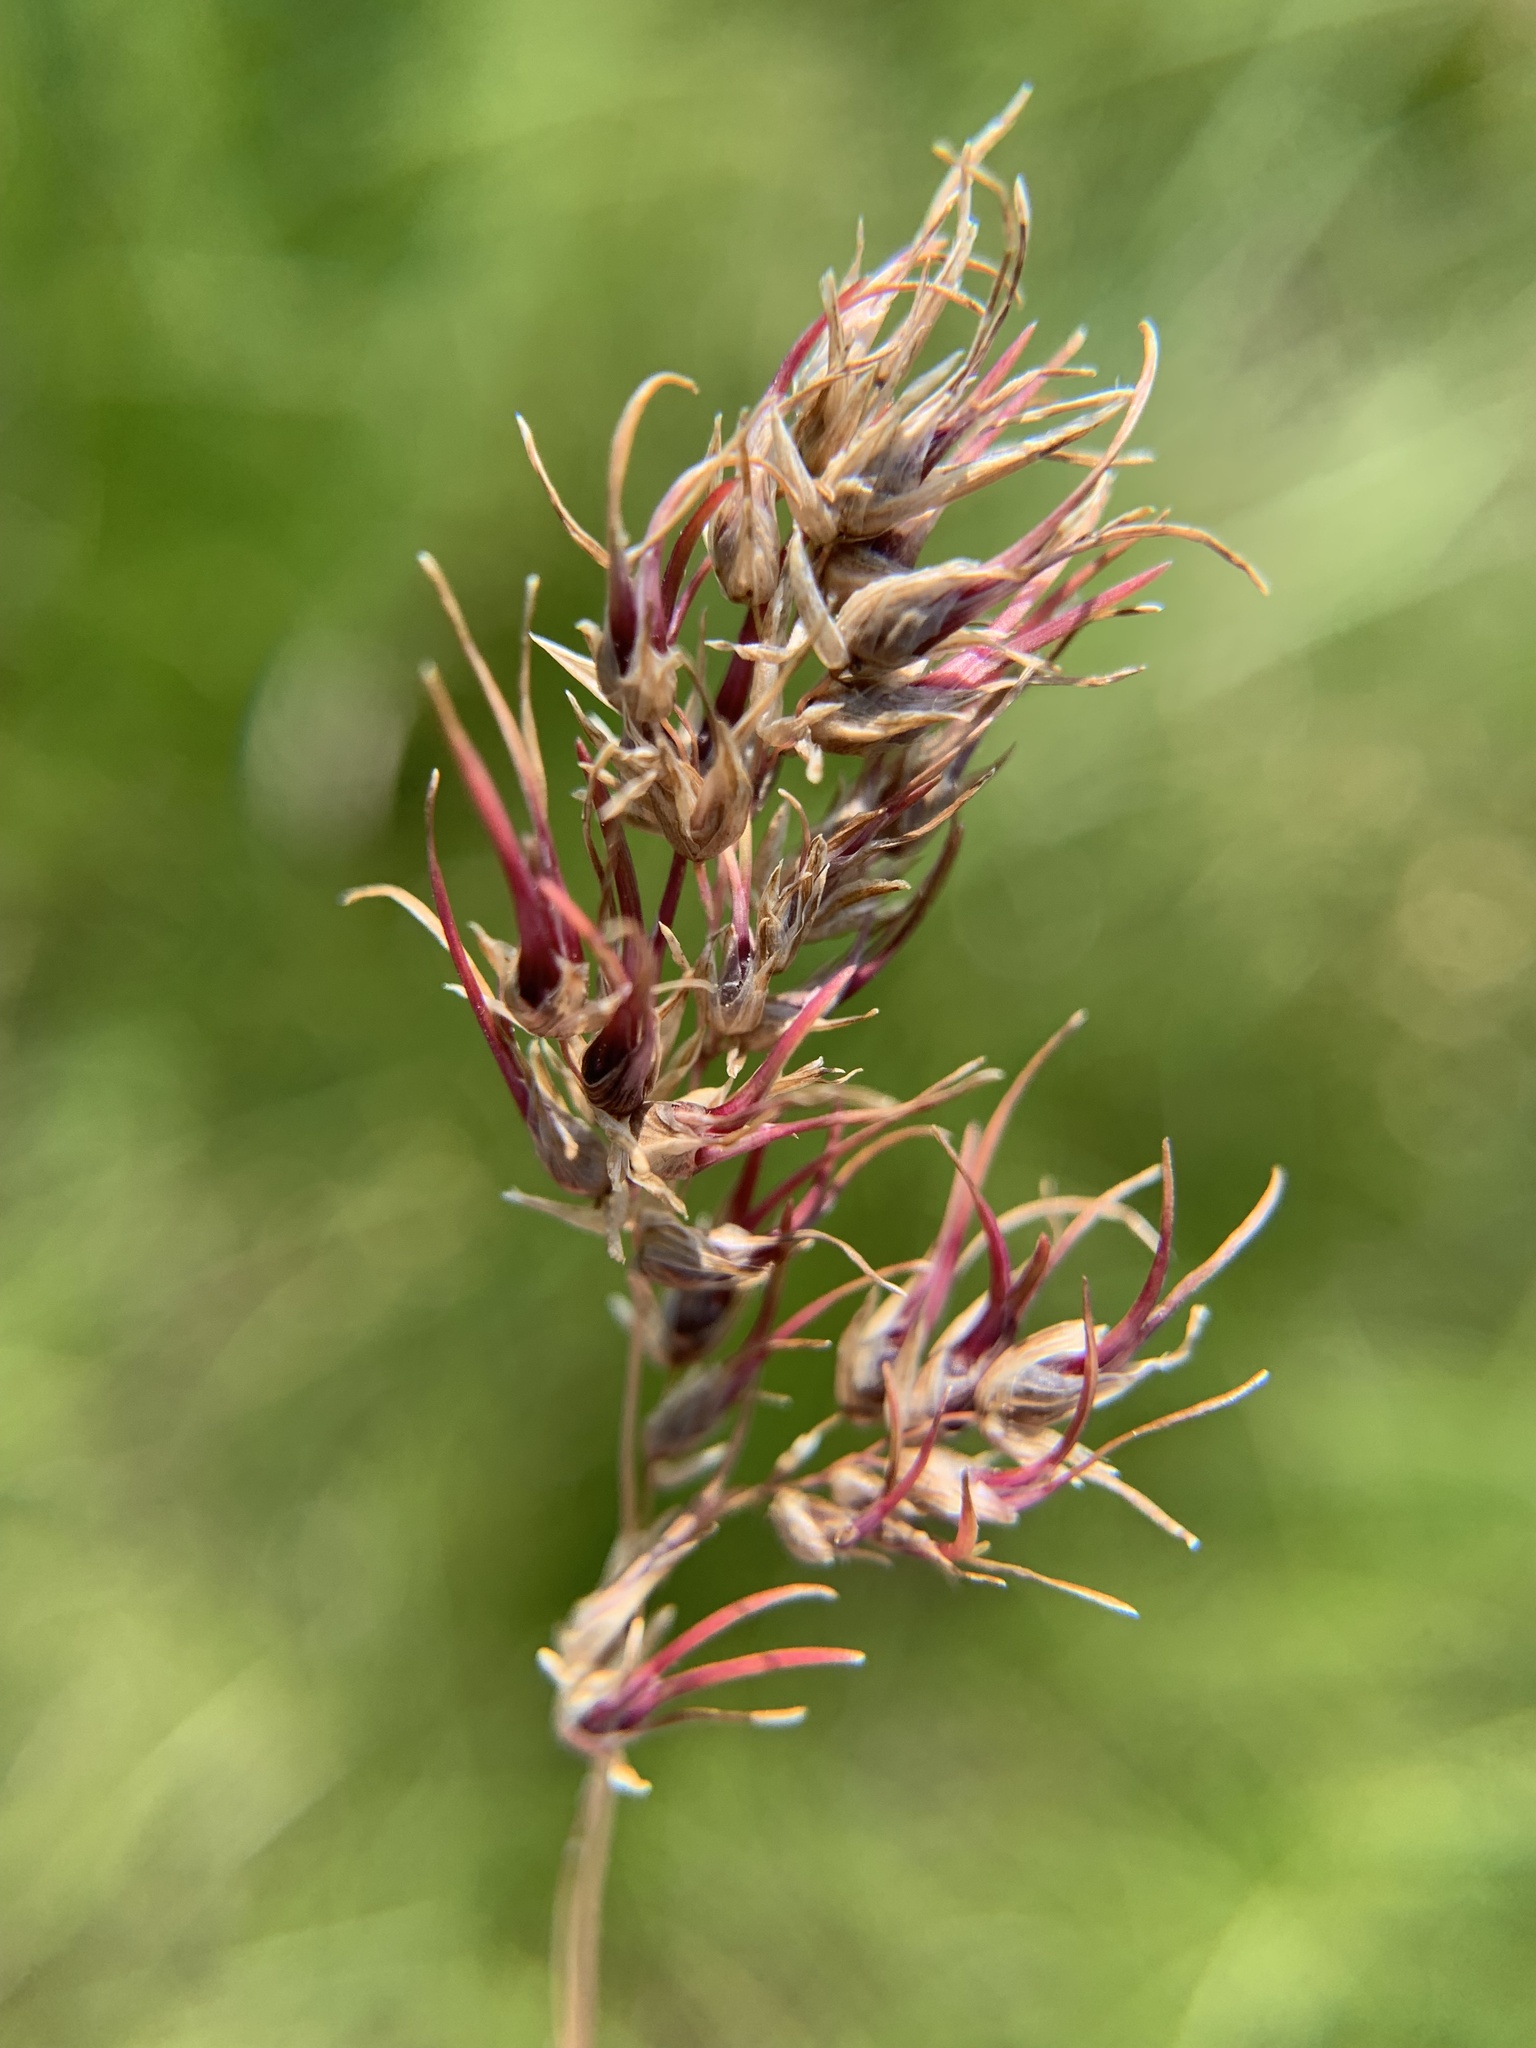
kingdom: Plantae
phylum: Tracheophyta
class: Liliopsida
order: Poales
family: Poaceae
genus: Poa
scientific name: Poa bulbosa
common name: Bulbous bluegrass
